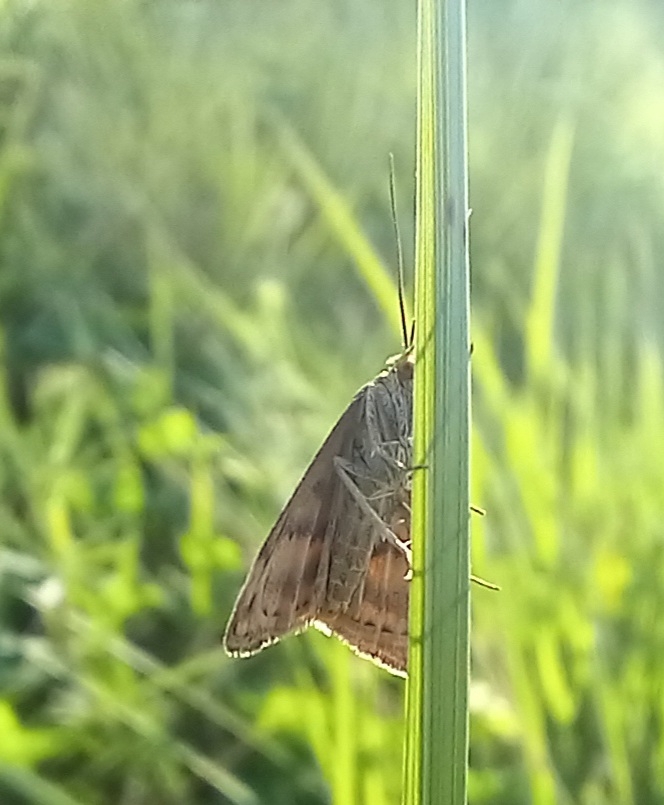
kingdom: Animalia
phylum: Arthropoda
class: Insecta
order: Lepidoptera
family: Crambidae
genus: Pyrausta
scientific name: Pyrausta despicata
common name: Straw-barred pearl
